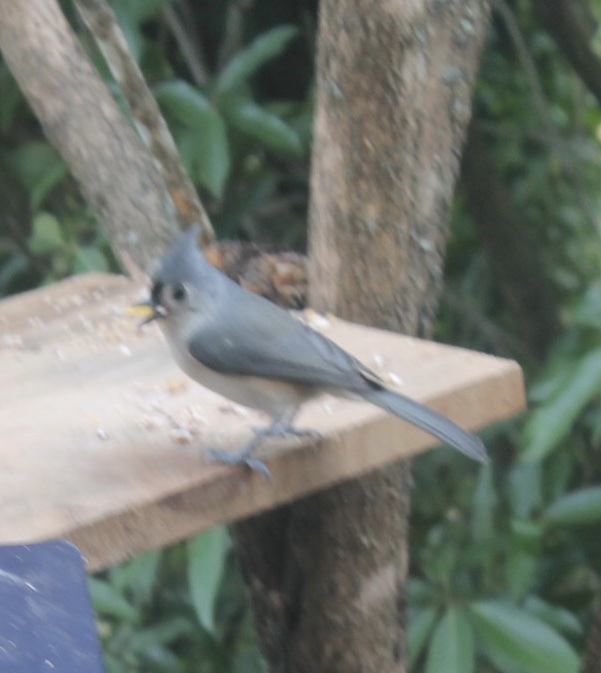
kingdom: Animalia
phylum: Chordata
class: Aves
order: Passeriformes
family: Paridae
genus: Baeolophus
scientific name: Baeolophus bicolor
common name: Tufted titmouse
